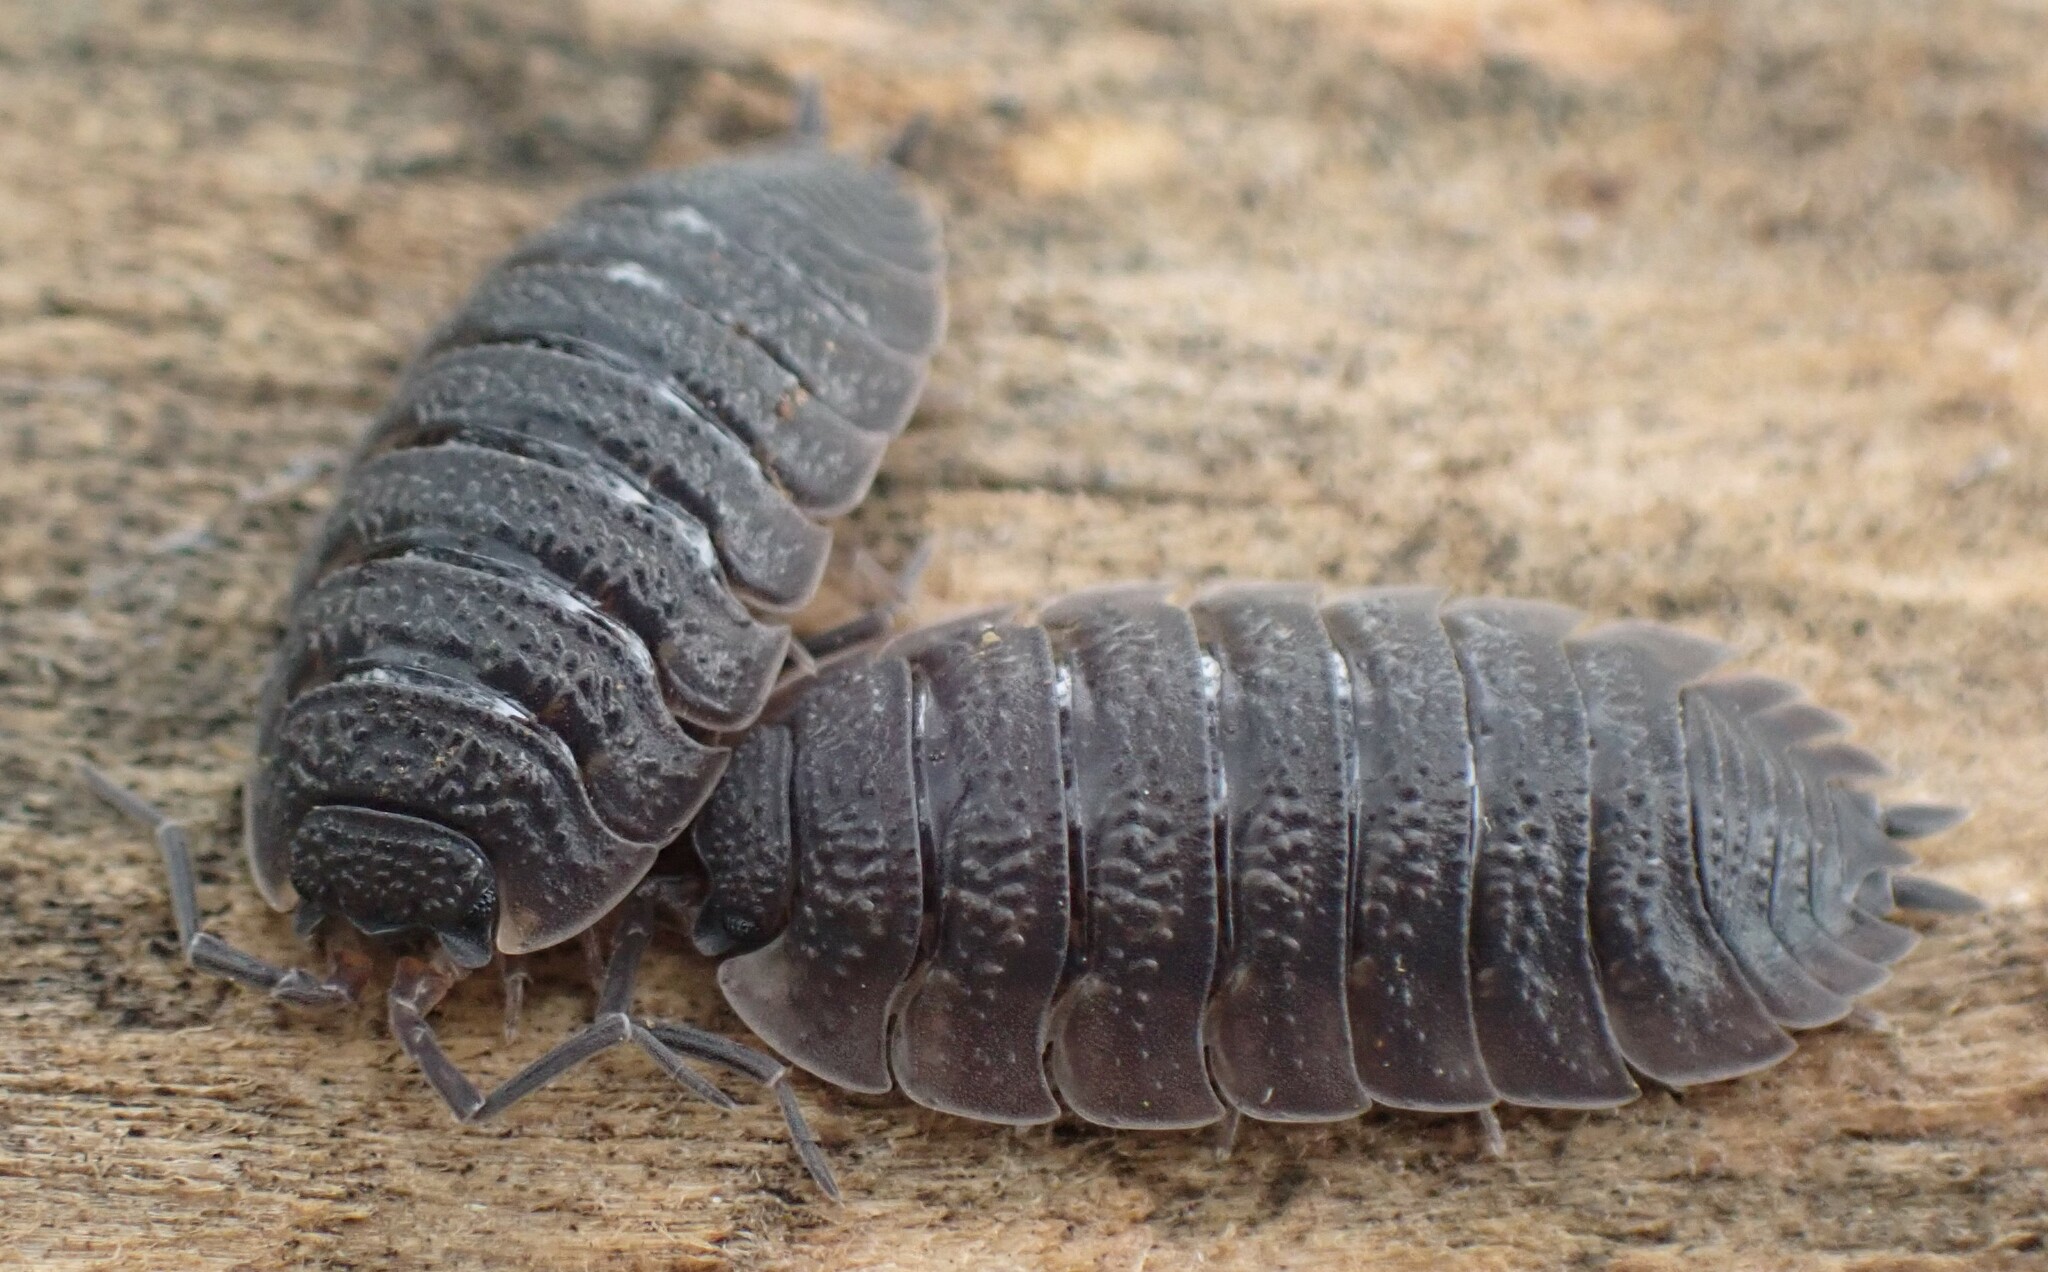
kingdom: Animalia
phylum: Arthropoda
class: Malacostraca
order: Isopoda
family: Porcellionidae
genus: Porcellio
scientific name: Porcellio scaber
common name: Common rough woodlouse
